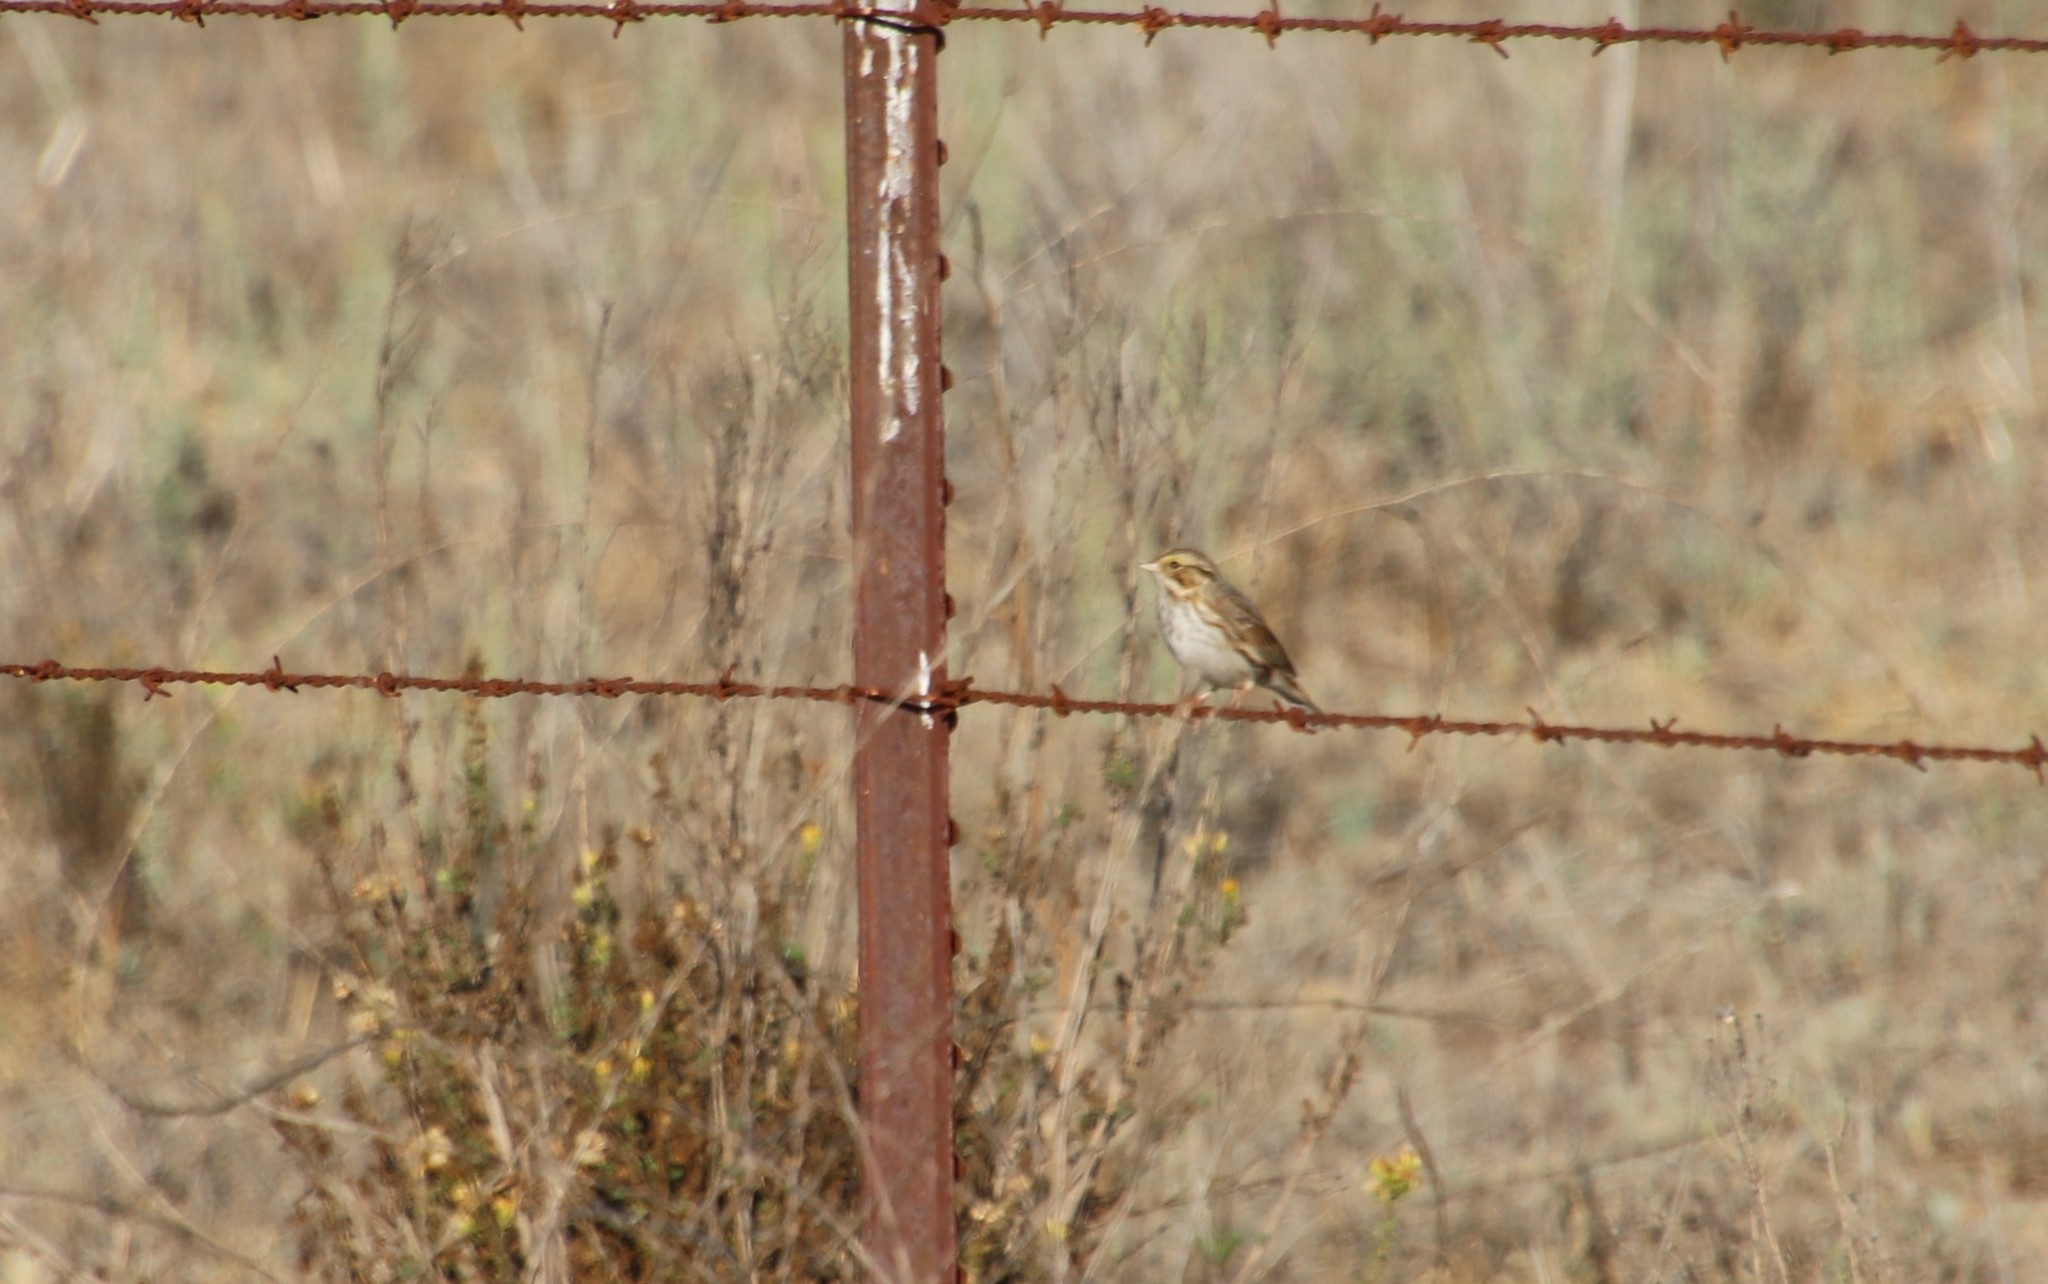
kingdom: Animalia
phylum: Chordata
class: Aves
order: Passeriformes
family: Passerellidae
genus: Passerculus
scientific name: Passerculus sandwichensis
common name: Savannah sparrow
